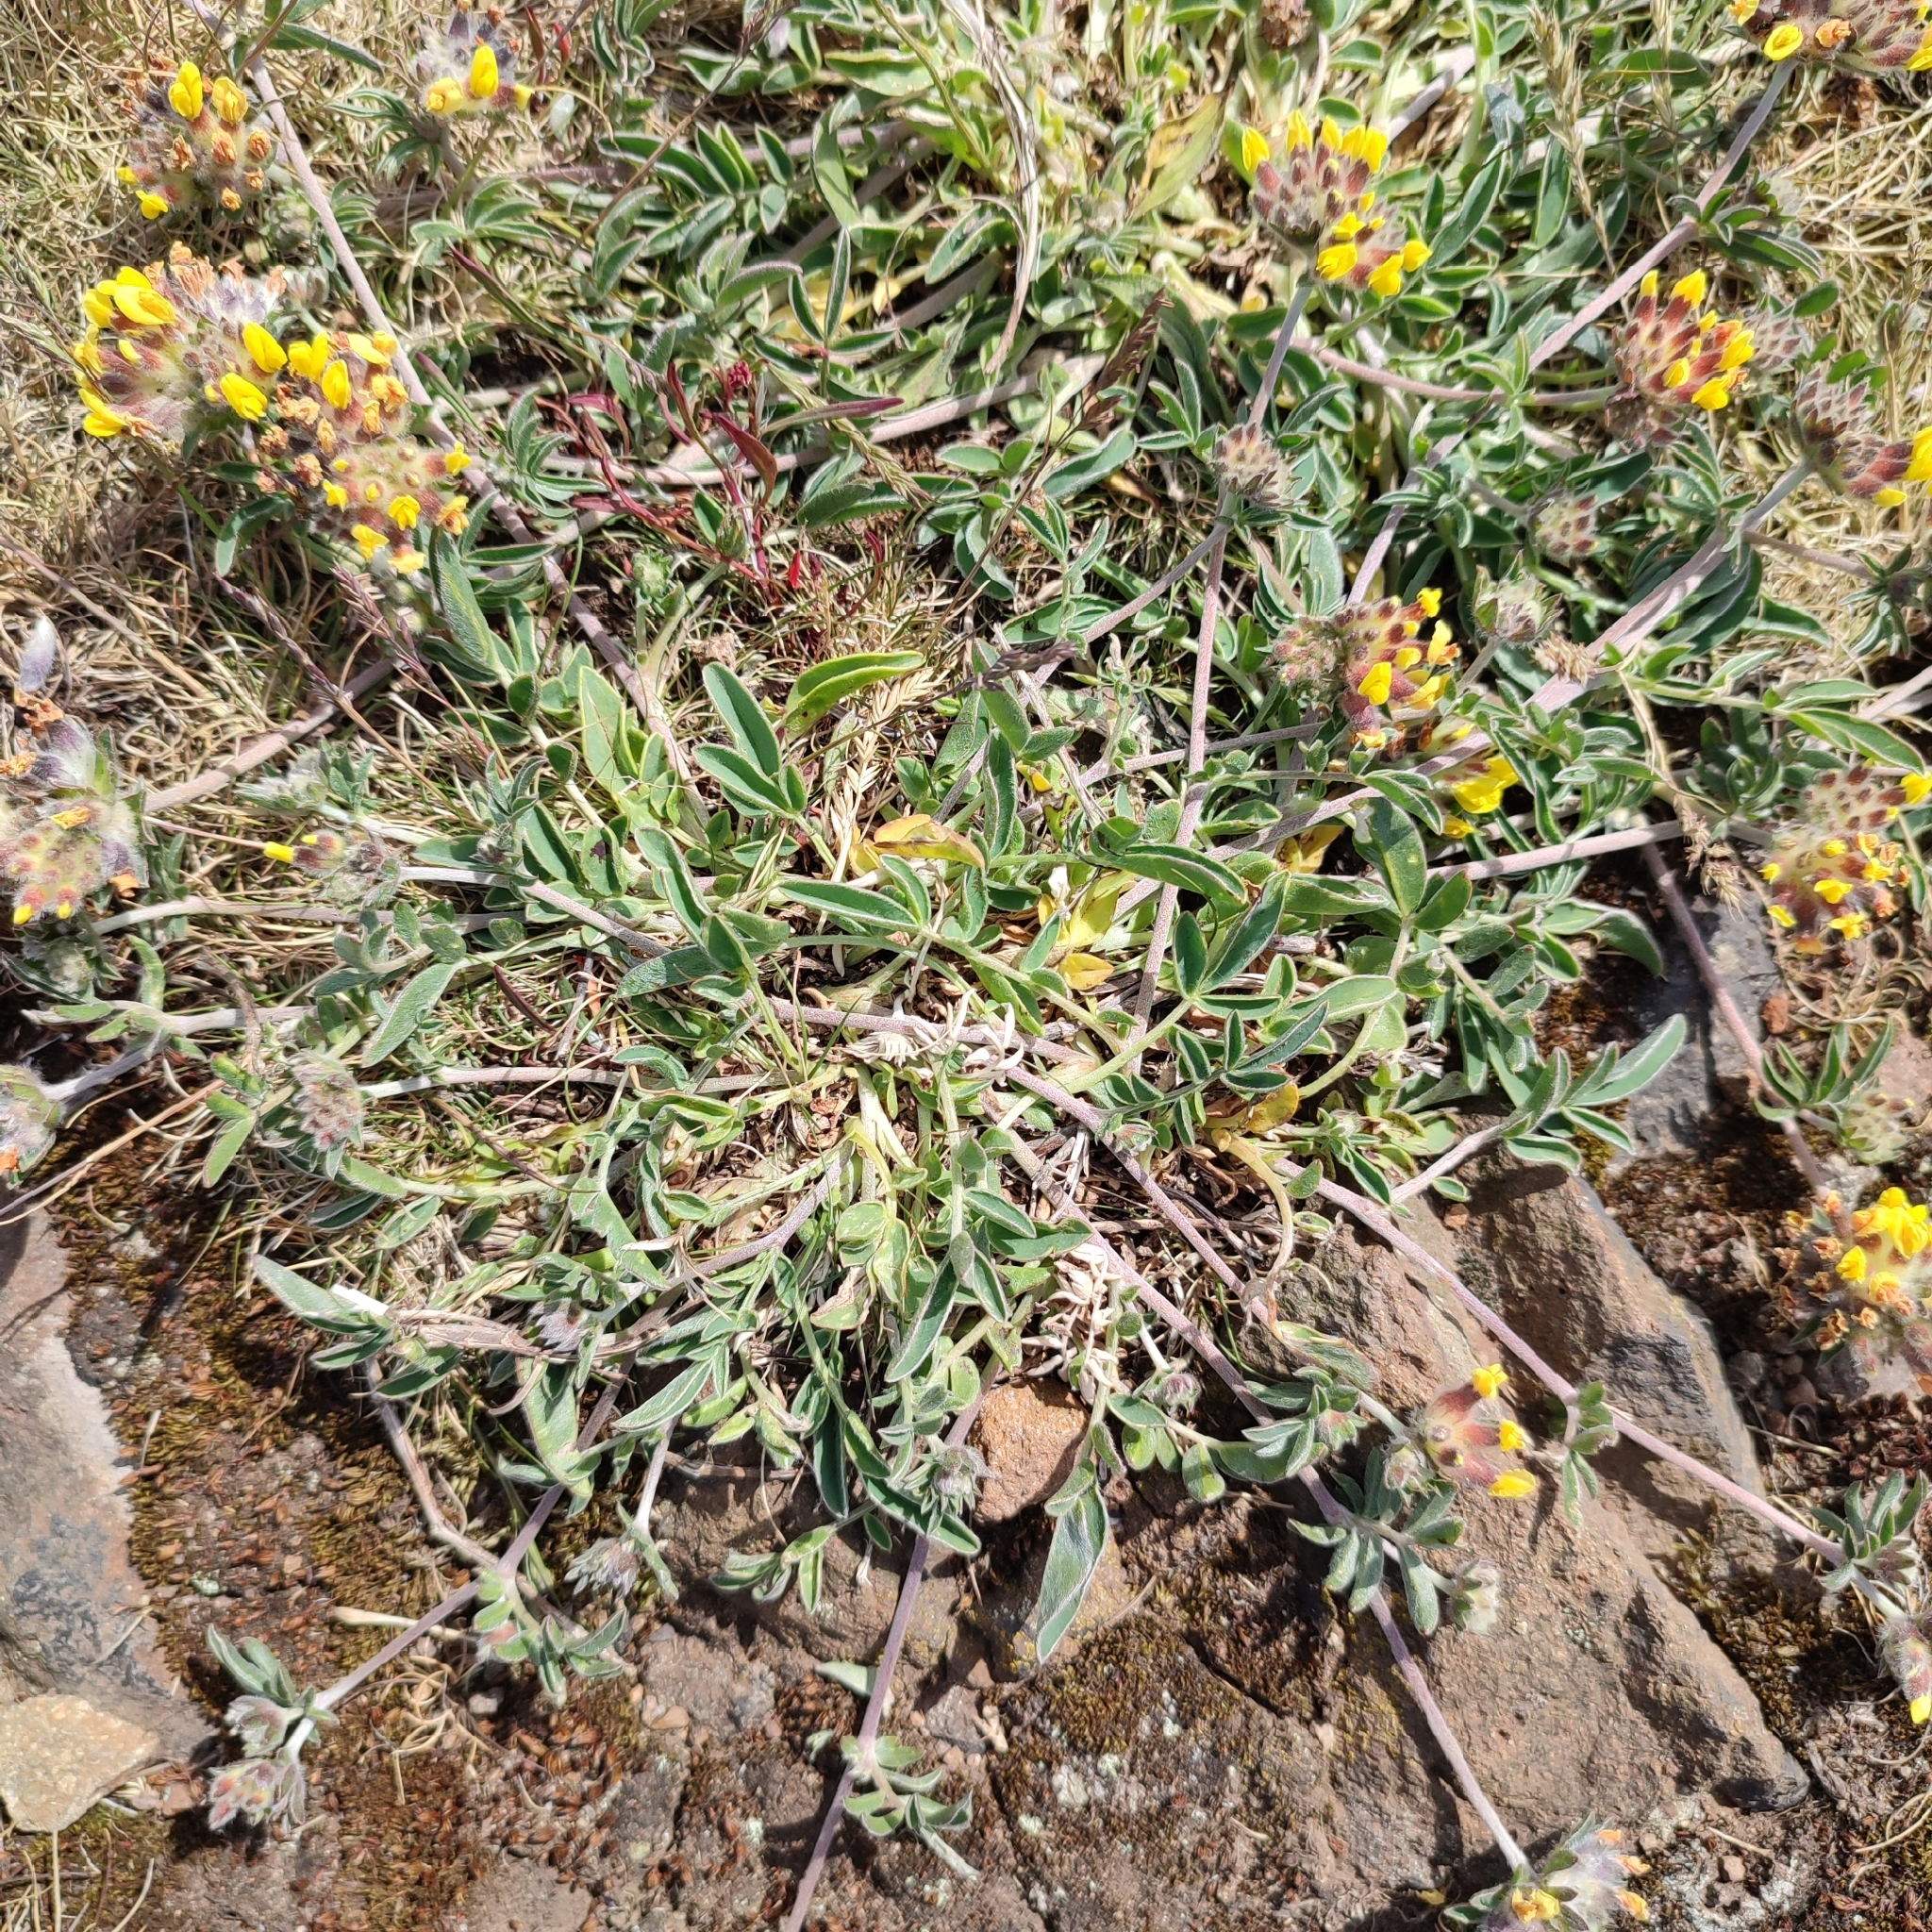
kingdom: Plantae
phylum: Tracheophyta
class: Magnoliopsida
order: Fabales
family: Fabaceae
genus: Anthyllis
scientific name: Anthyllis vulneraria
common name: Kidney vetch
